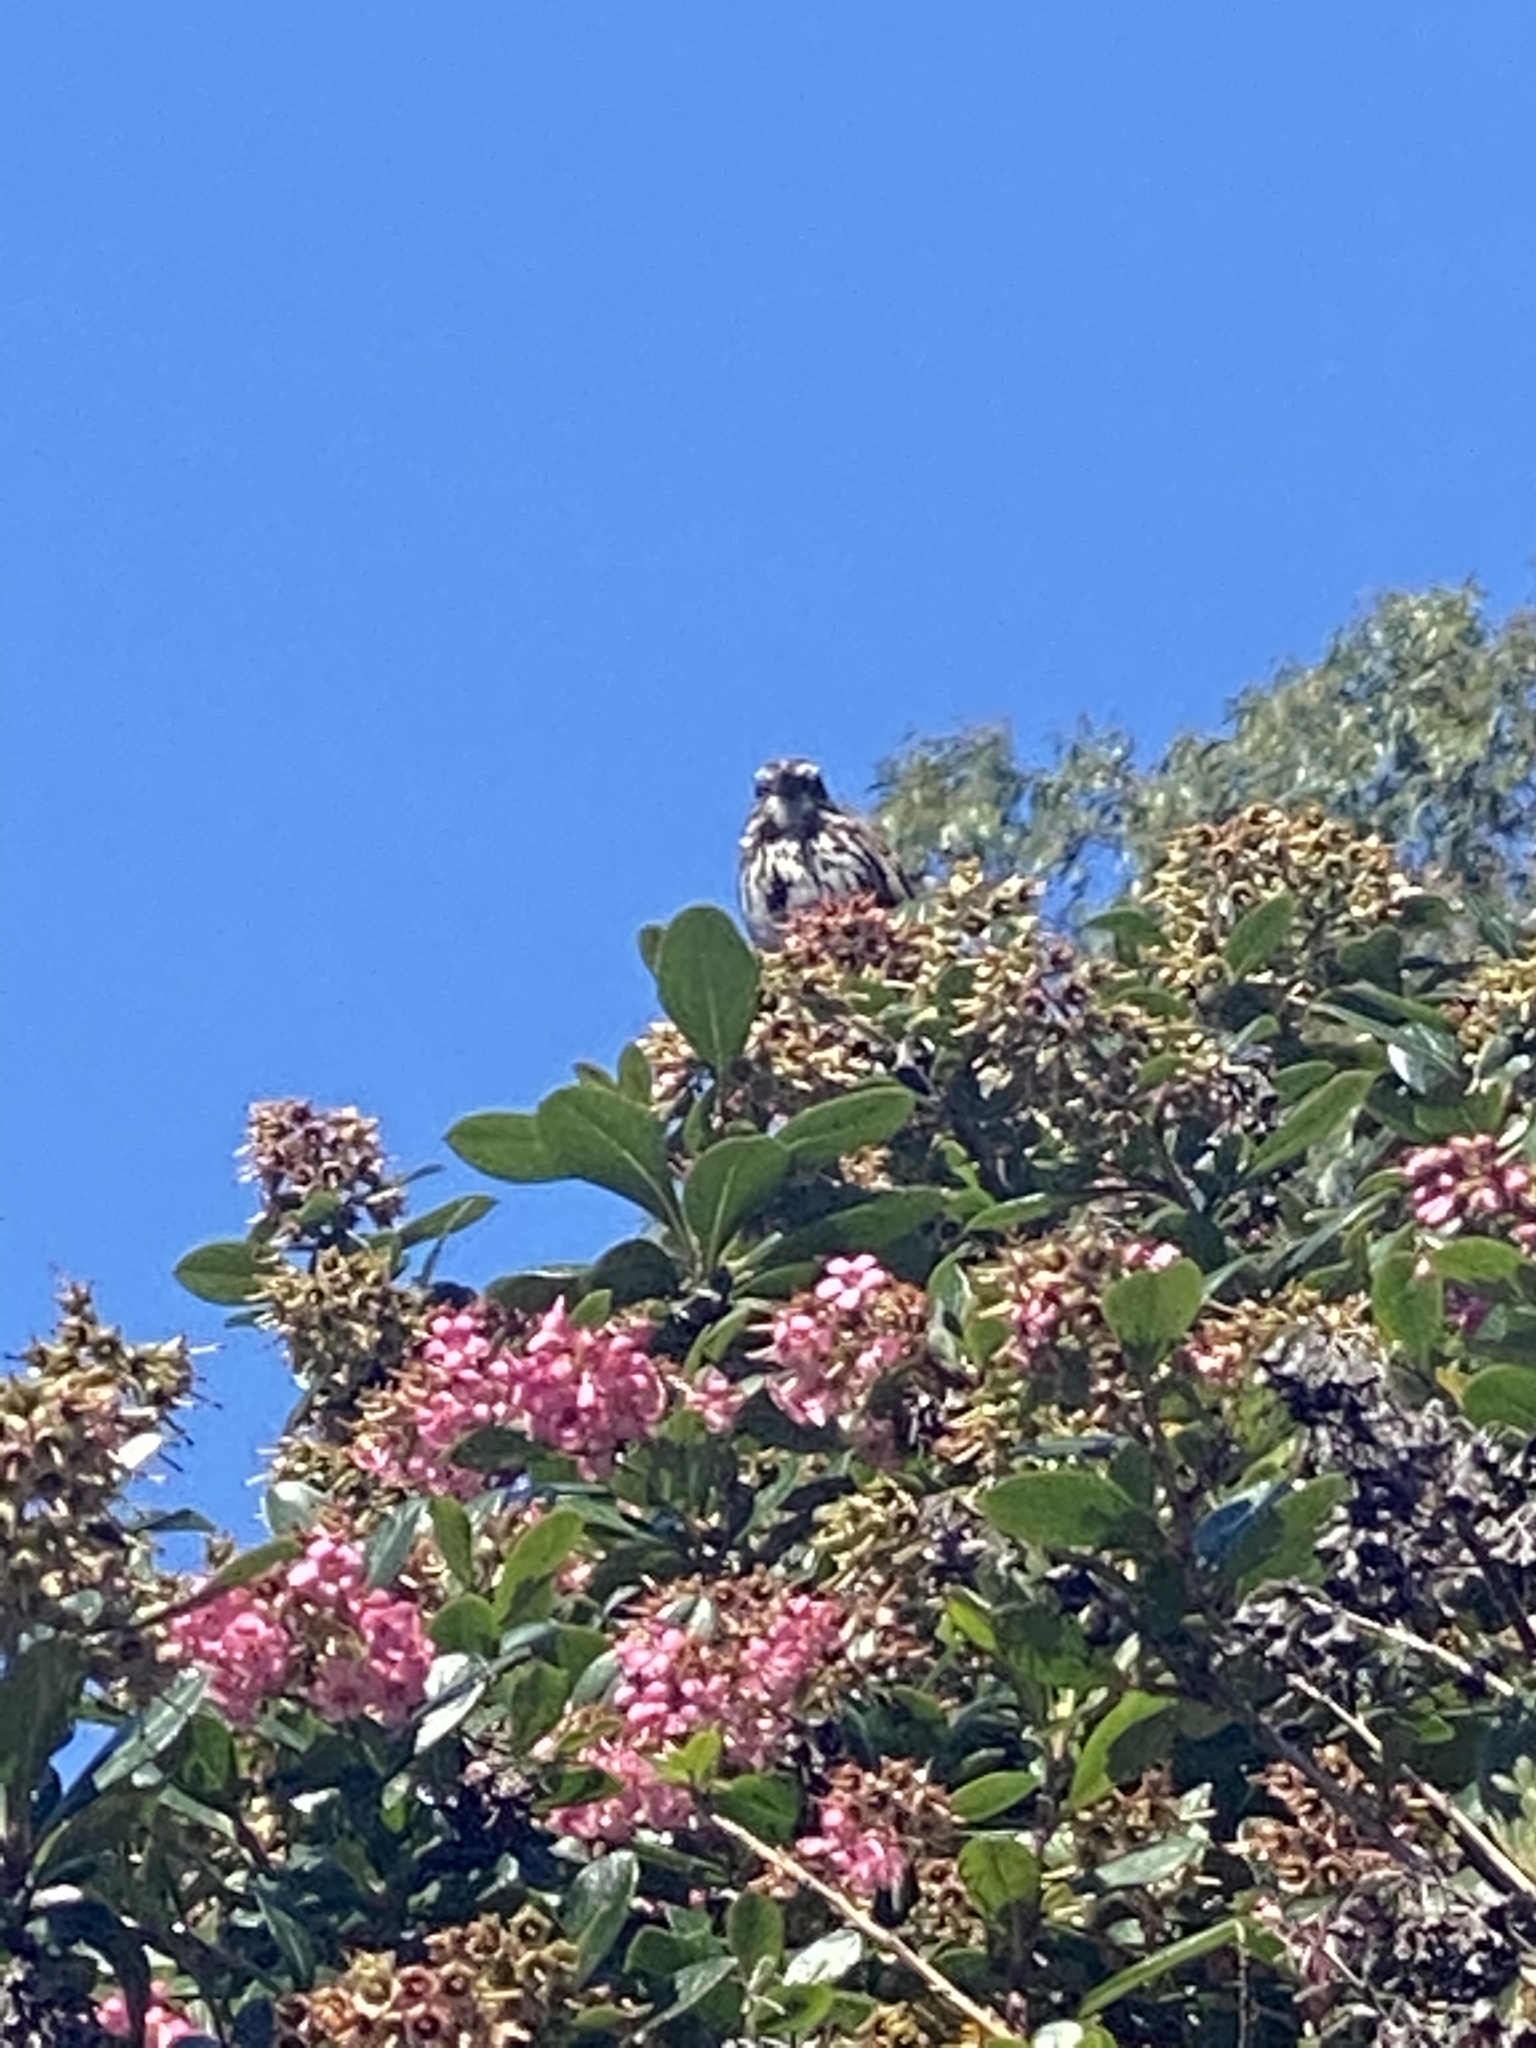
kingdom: Animalia
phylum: Chordata
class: Aves
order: Passeriformes
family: Passerellidae
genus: Melospiza
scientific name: Melospiza melodia
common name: Song sparrow
